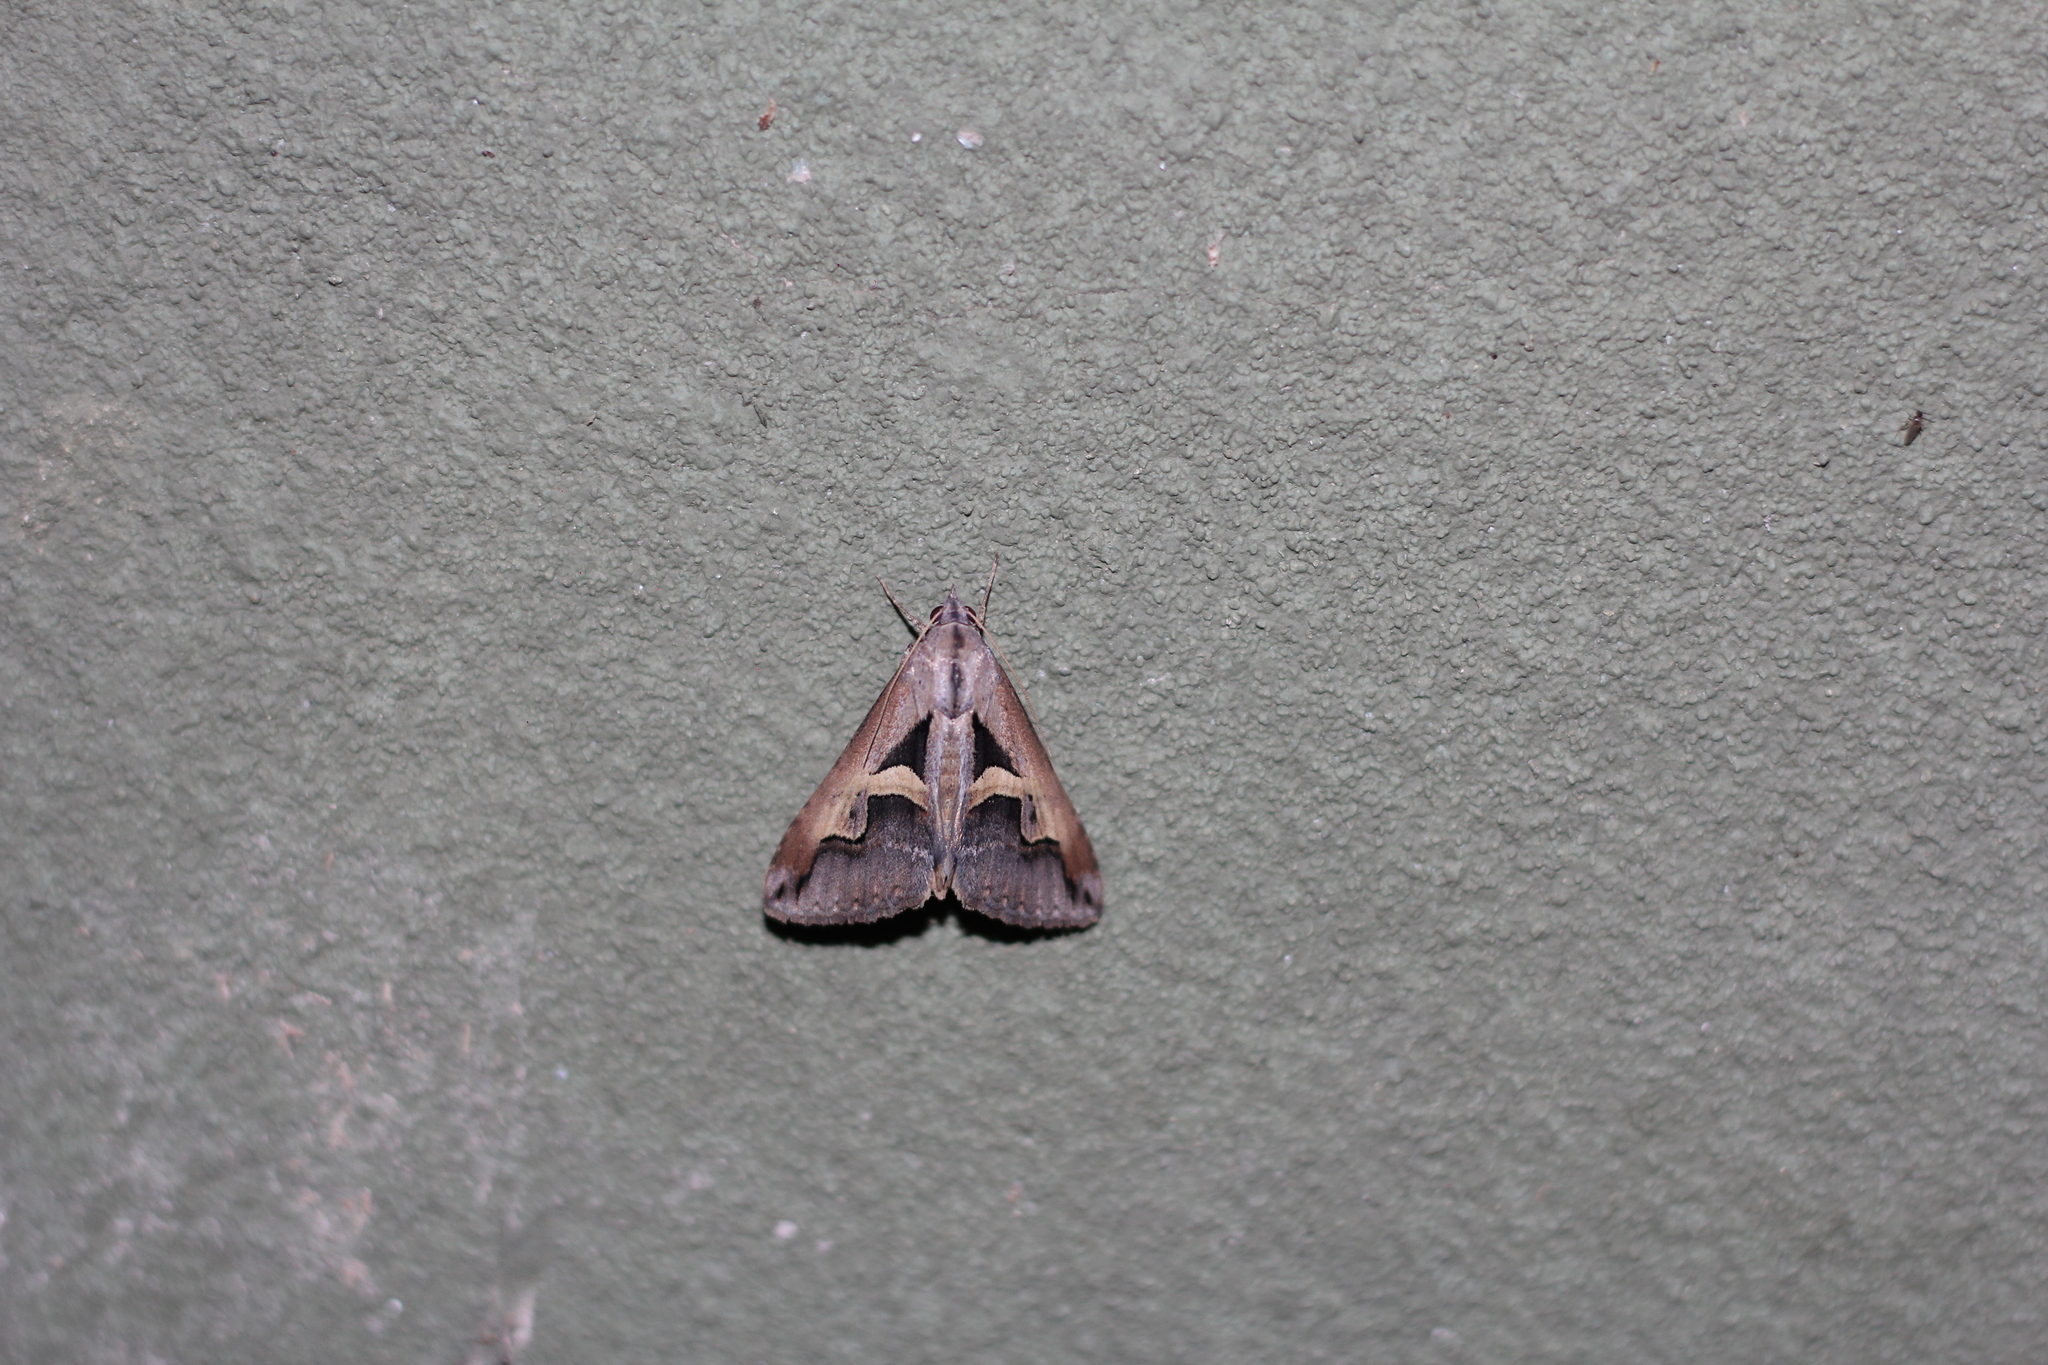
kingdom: Animalia
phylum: Arthropoda
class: Insecta
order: Lepidoptera
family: Erebidae
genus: Melipotis
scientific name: Melipotis cellaris
